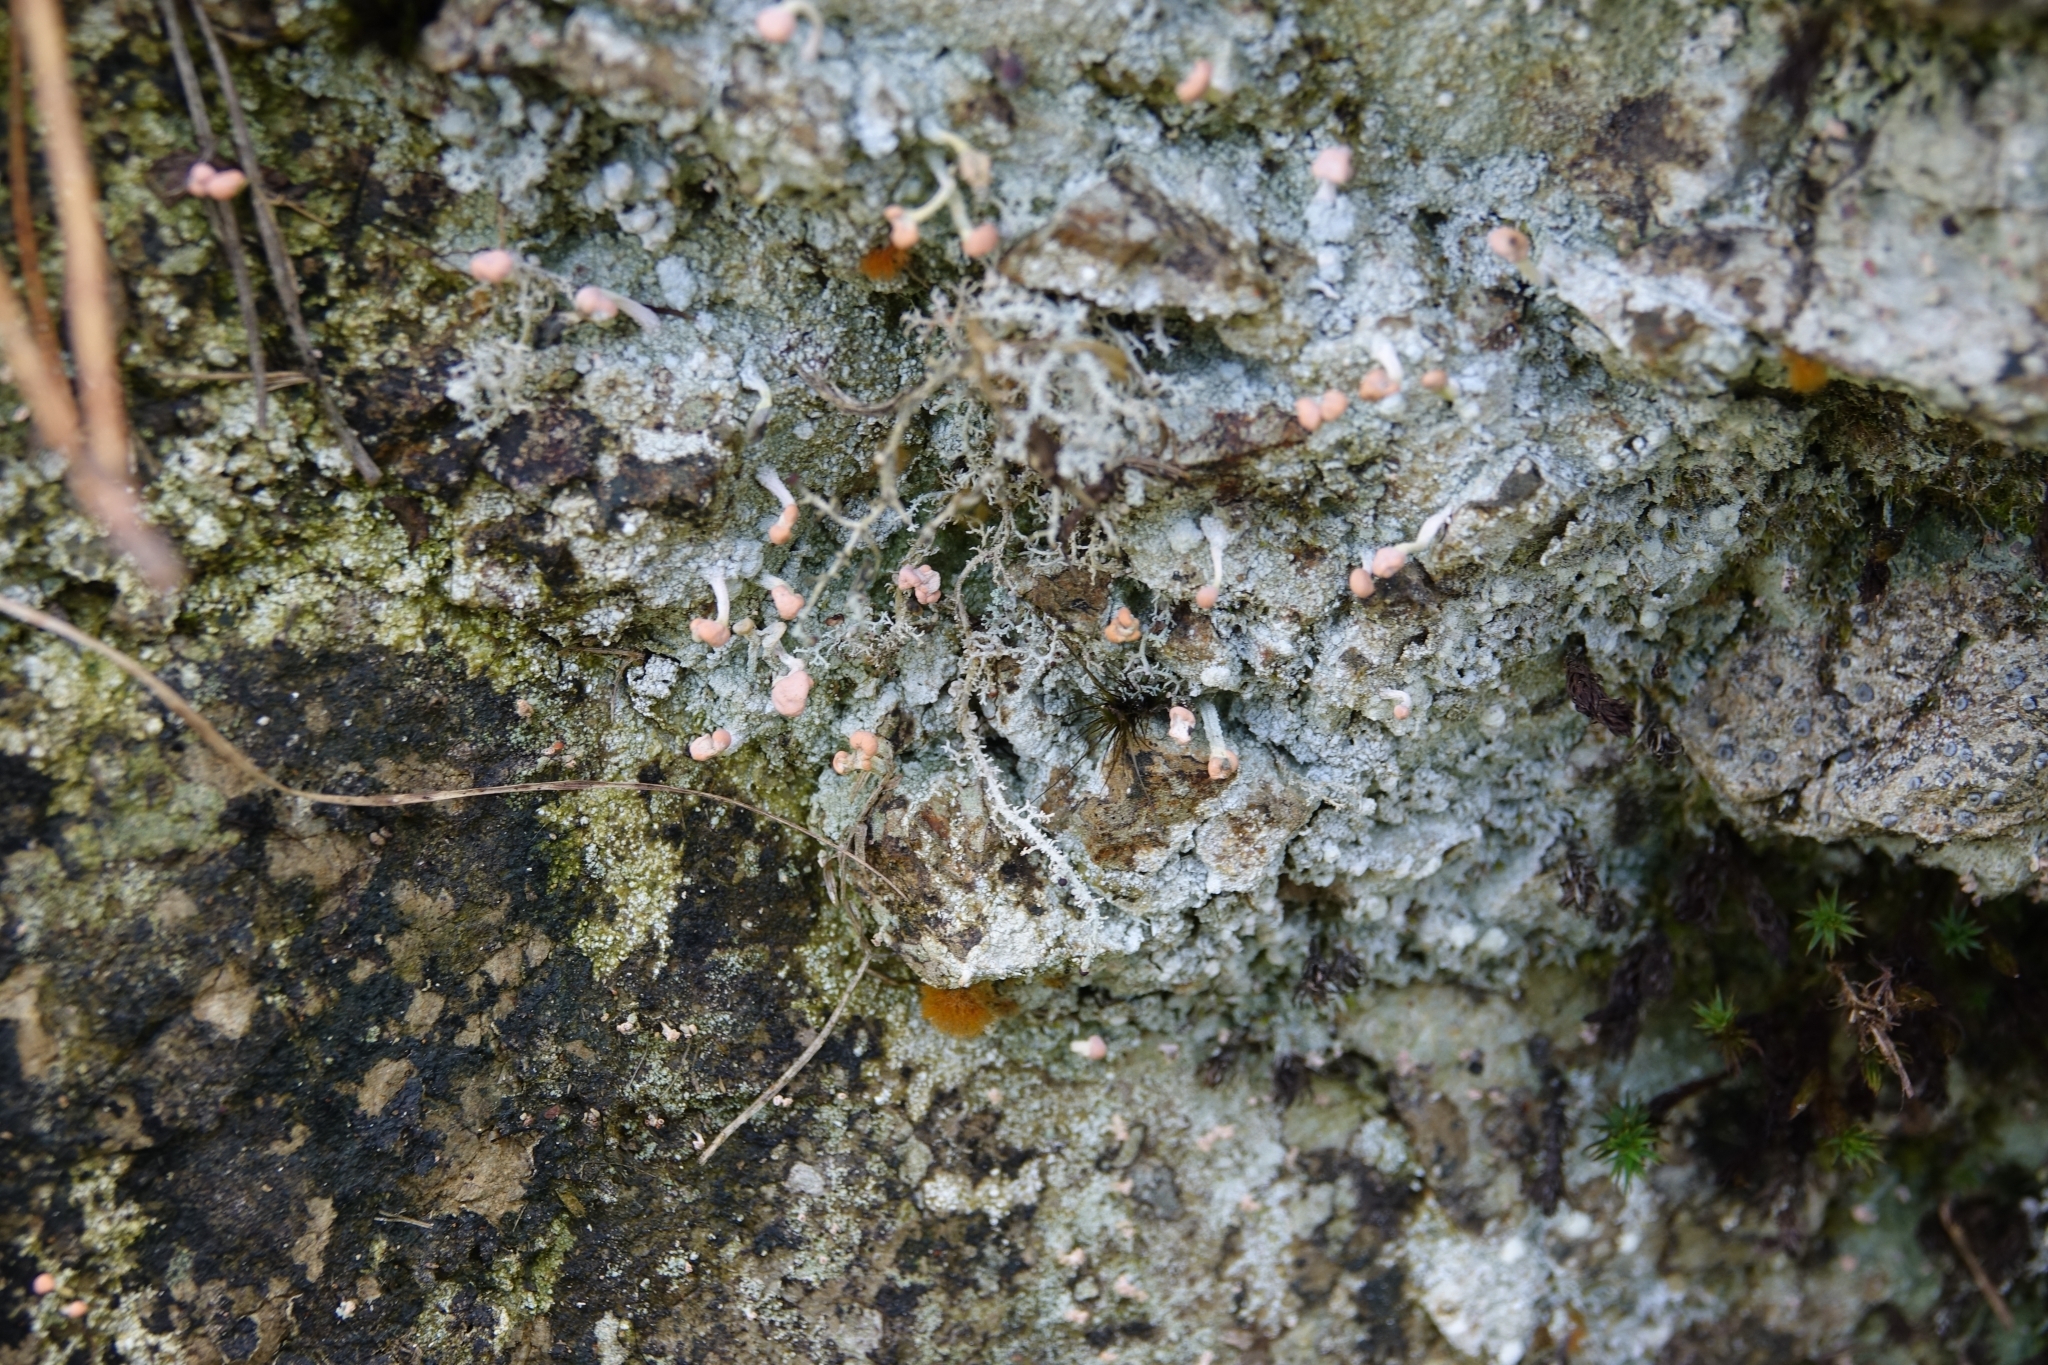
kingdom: Fungi
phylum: Ascomycota
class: Lecanoromycetes
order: Pertusariales
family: Icmadophilaceae
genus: Dibaeis
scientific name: Dibaeis arcuata
